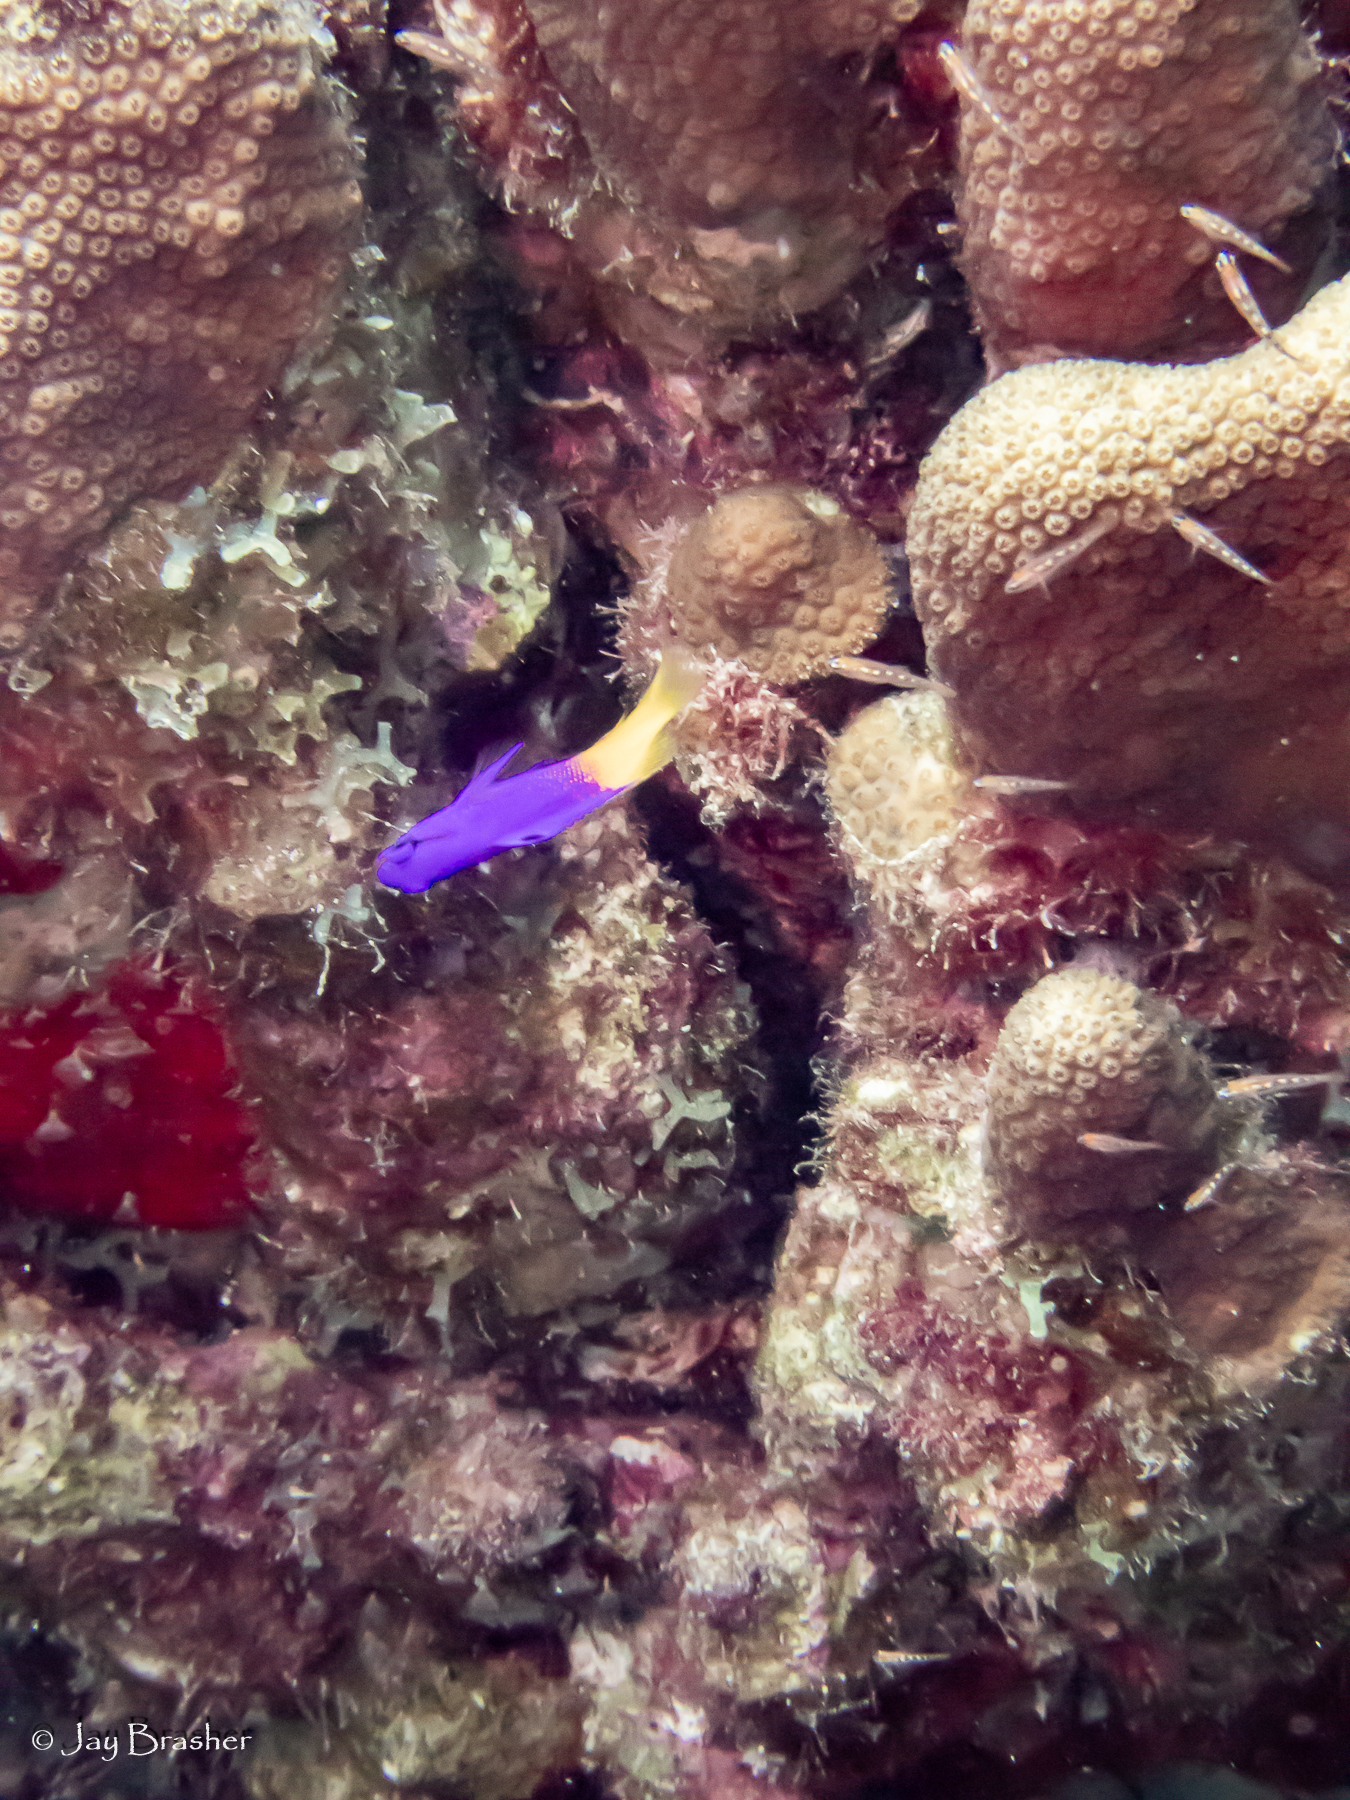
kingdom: Animalia
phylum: Chordata
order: Perciformes
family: Grammatidae
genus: Gramma
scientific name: Gramma loreto
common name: Fairy basslet
